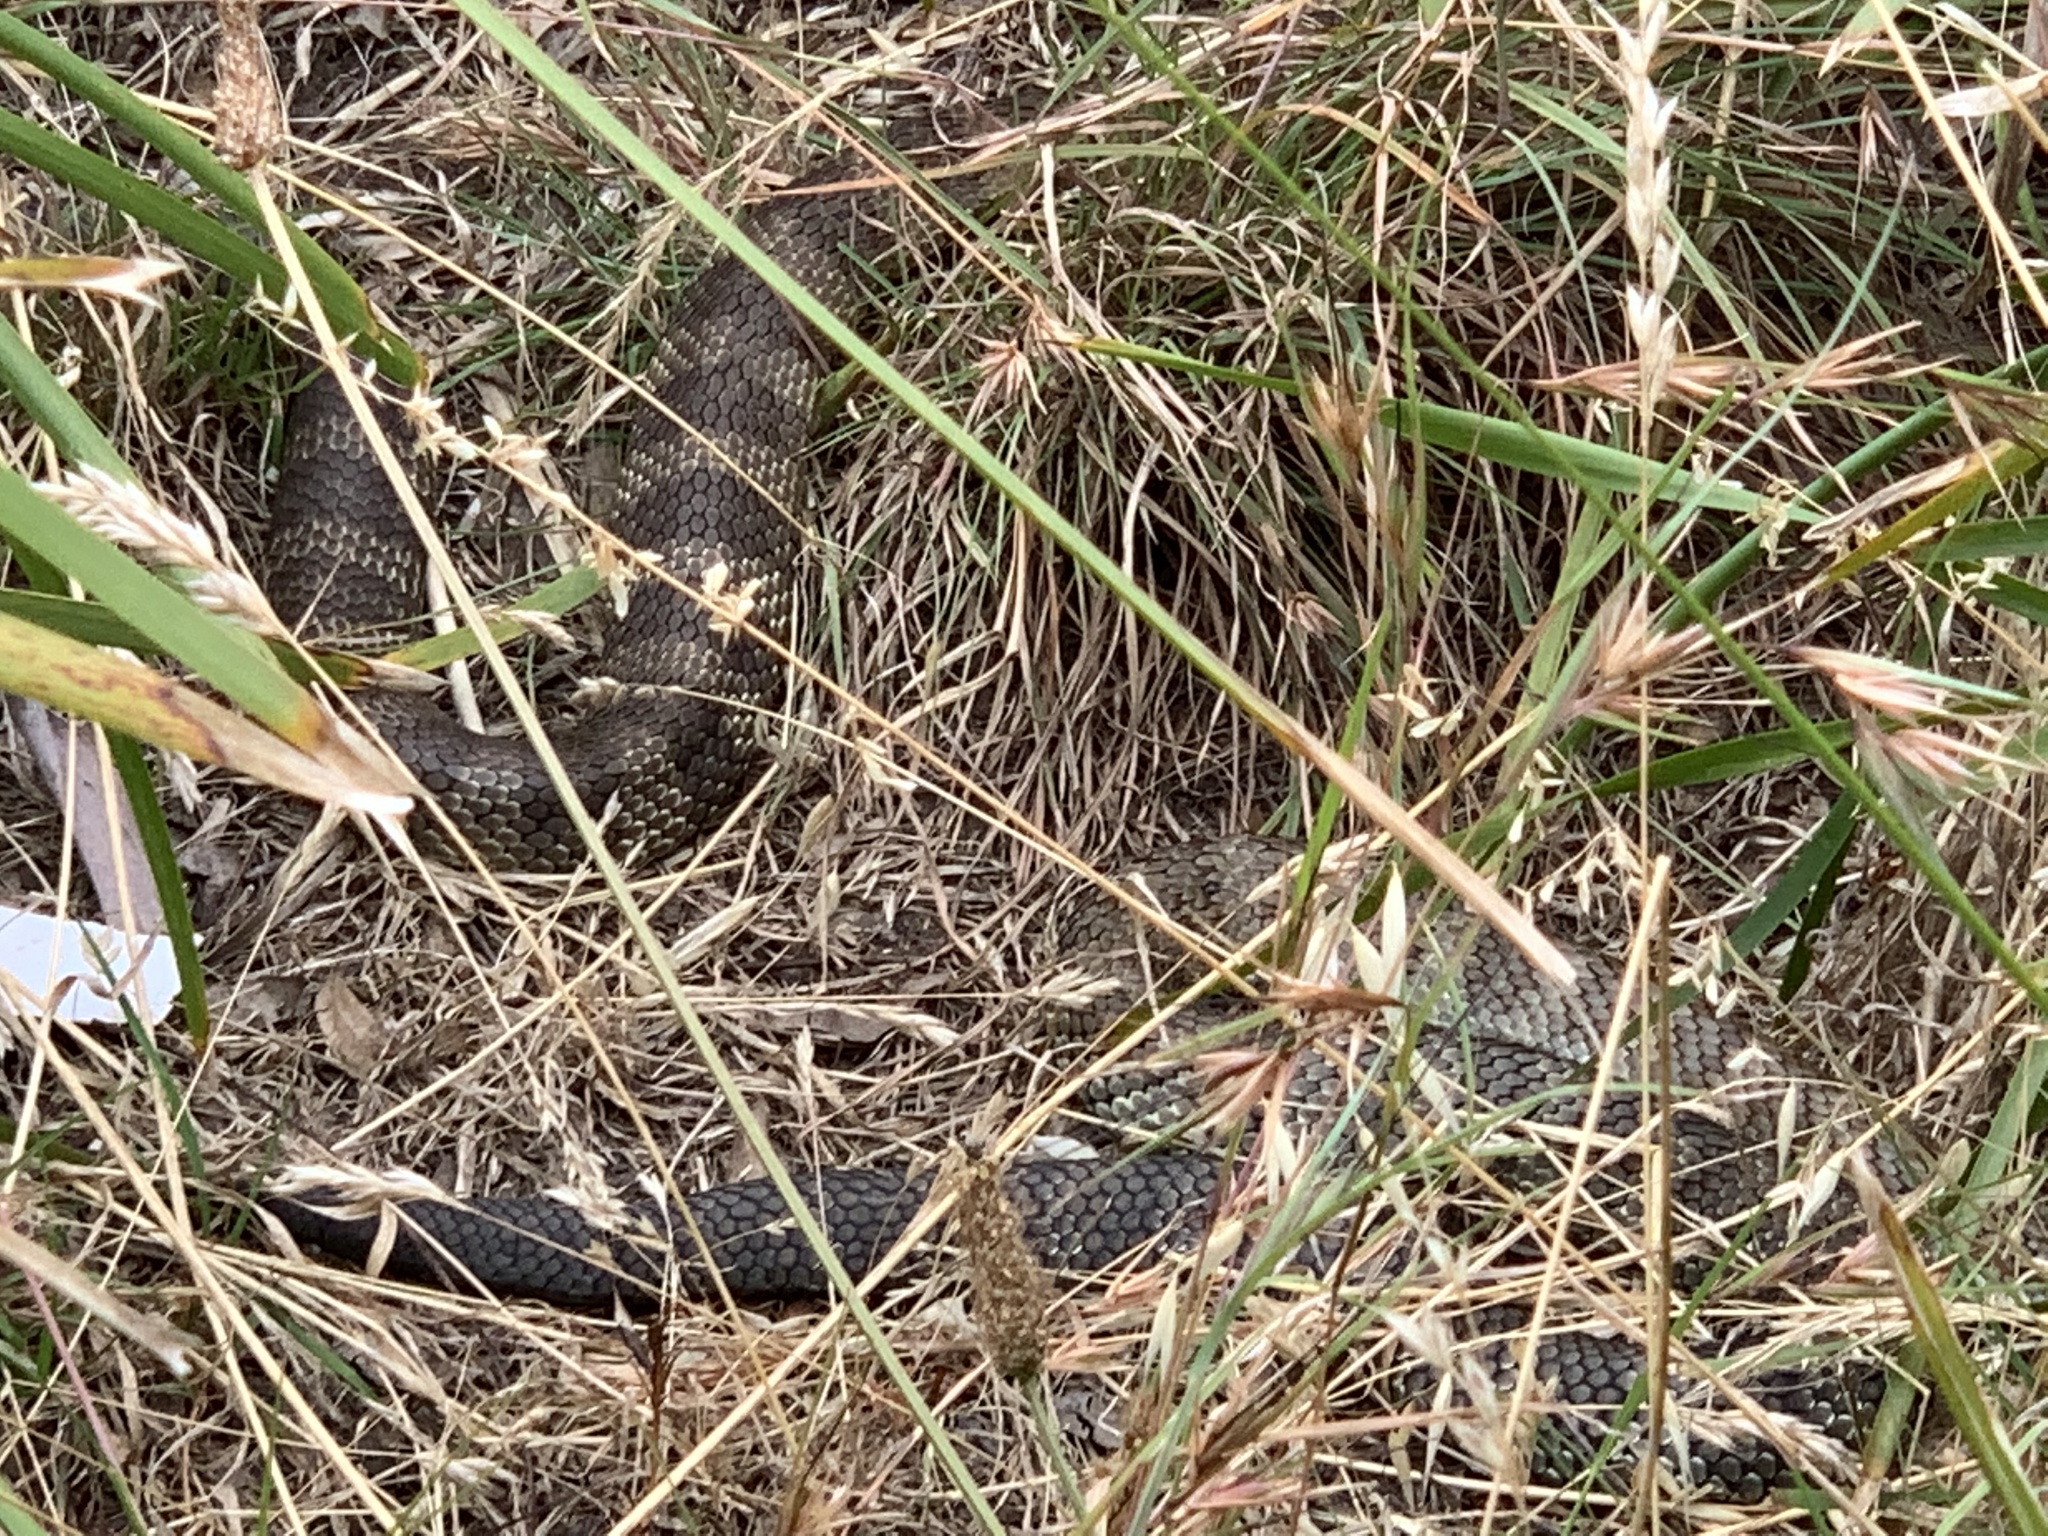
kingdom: Animalia
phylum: Chordata
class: Squamata
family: Elapidae
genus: Notechis
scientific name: Notechis scutatus
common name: Mainland tiger snake
